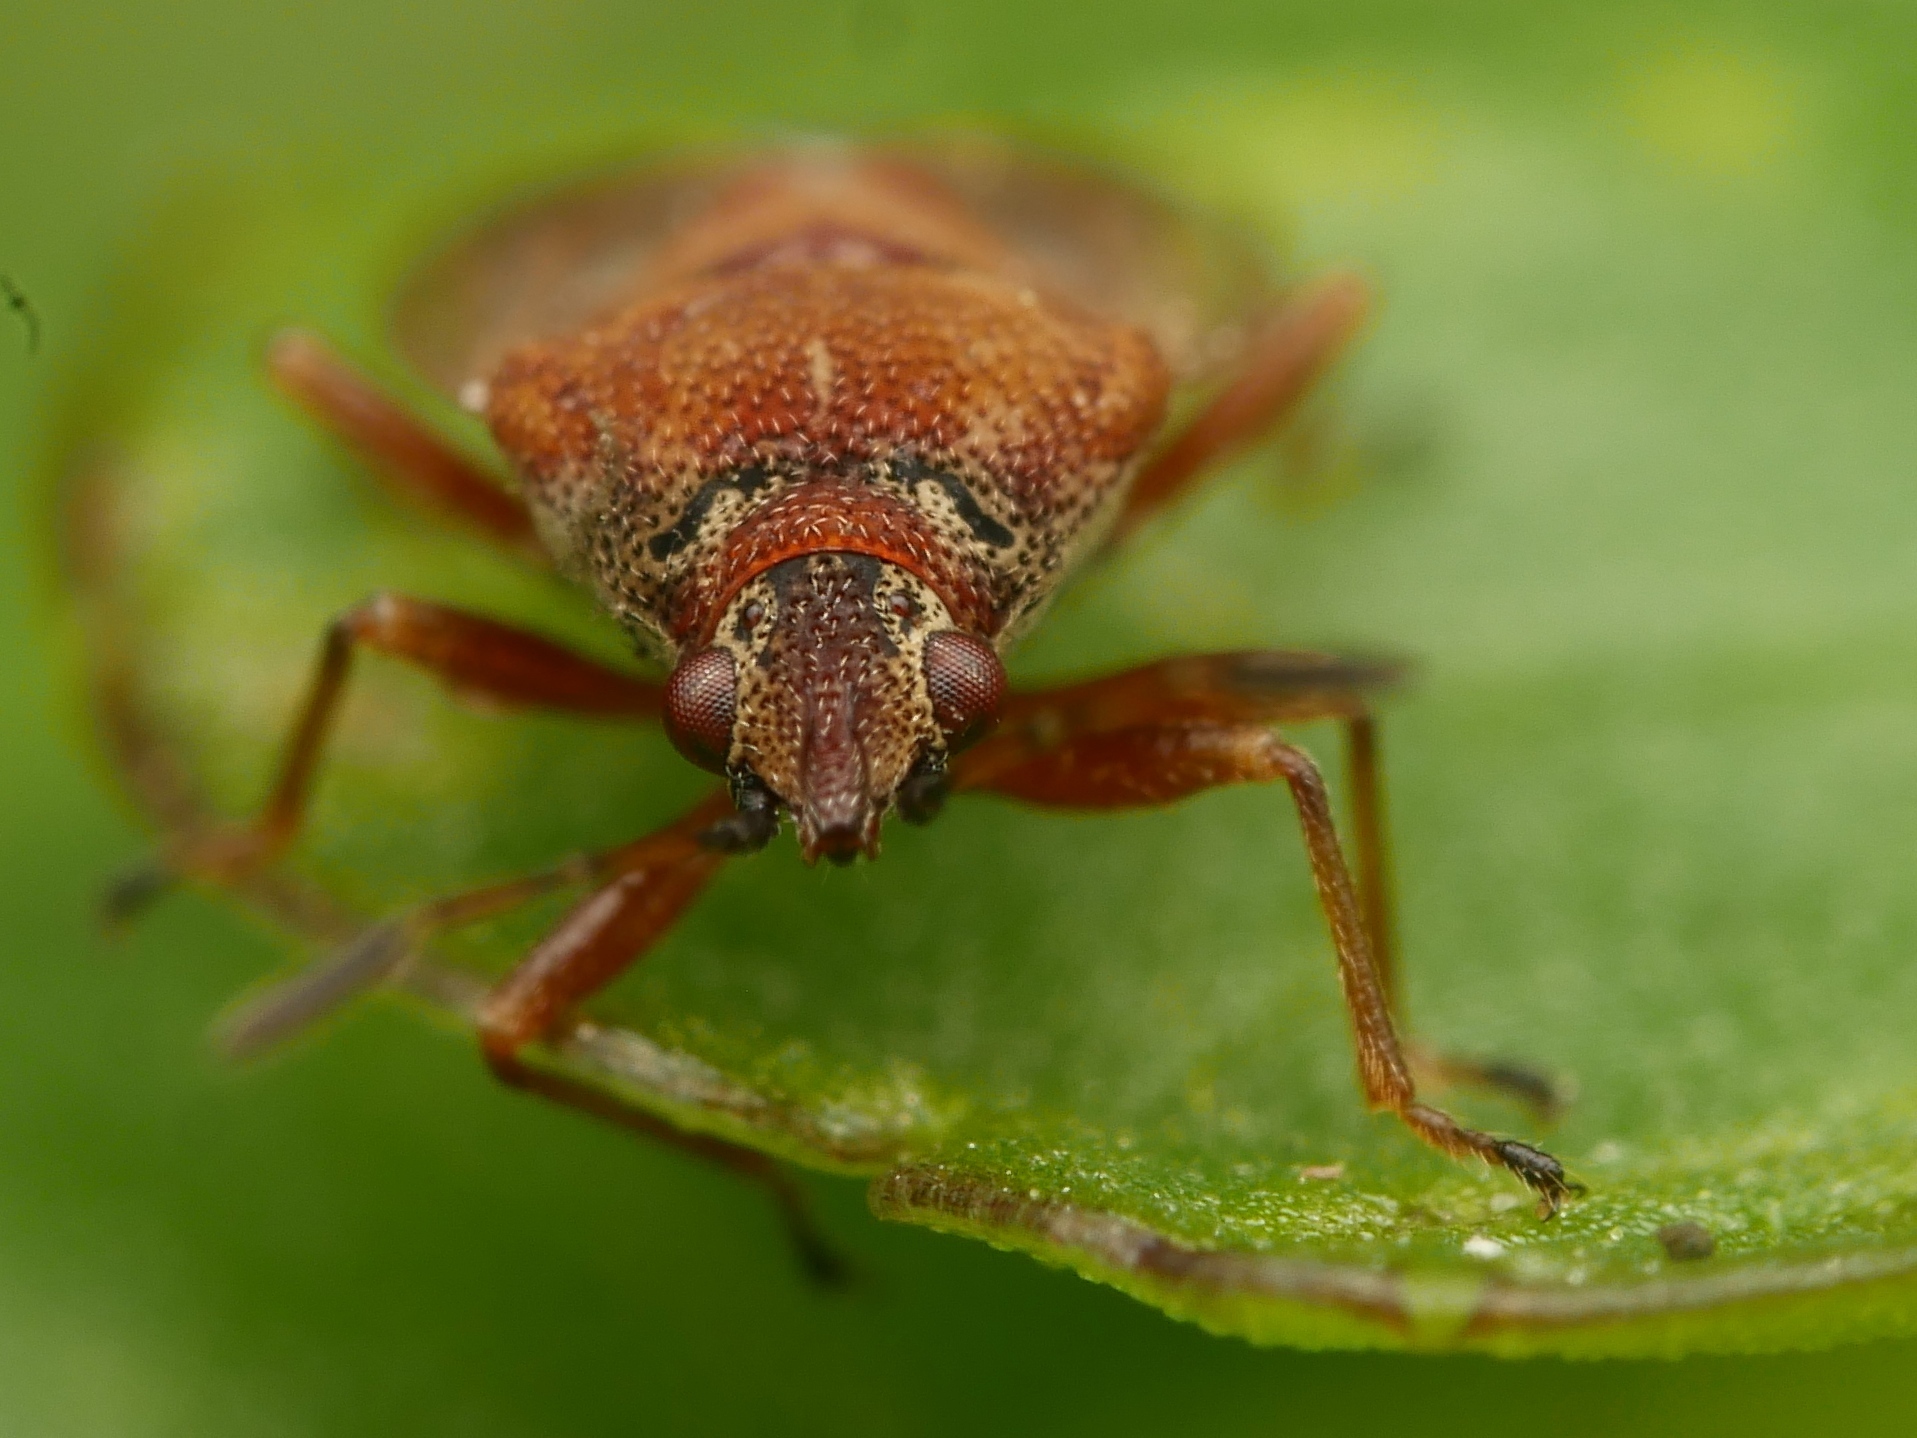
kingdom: Animalia
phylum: Arthropoda
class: Insecta
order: Hemiptera
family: Lygaeidae
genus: Kleidocerys
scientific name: Kleidocerys resedae
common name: Birch catkin bug
